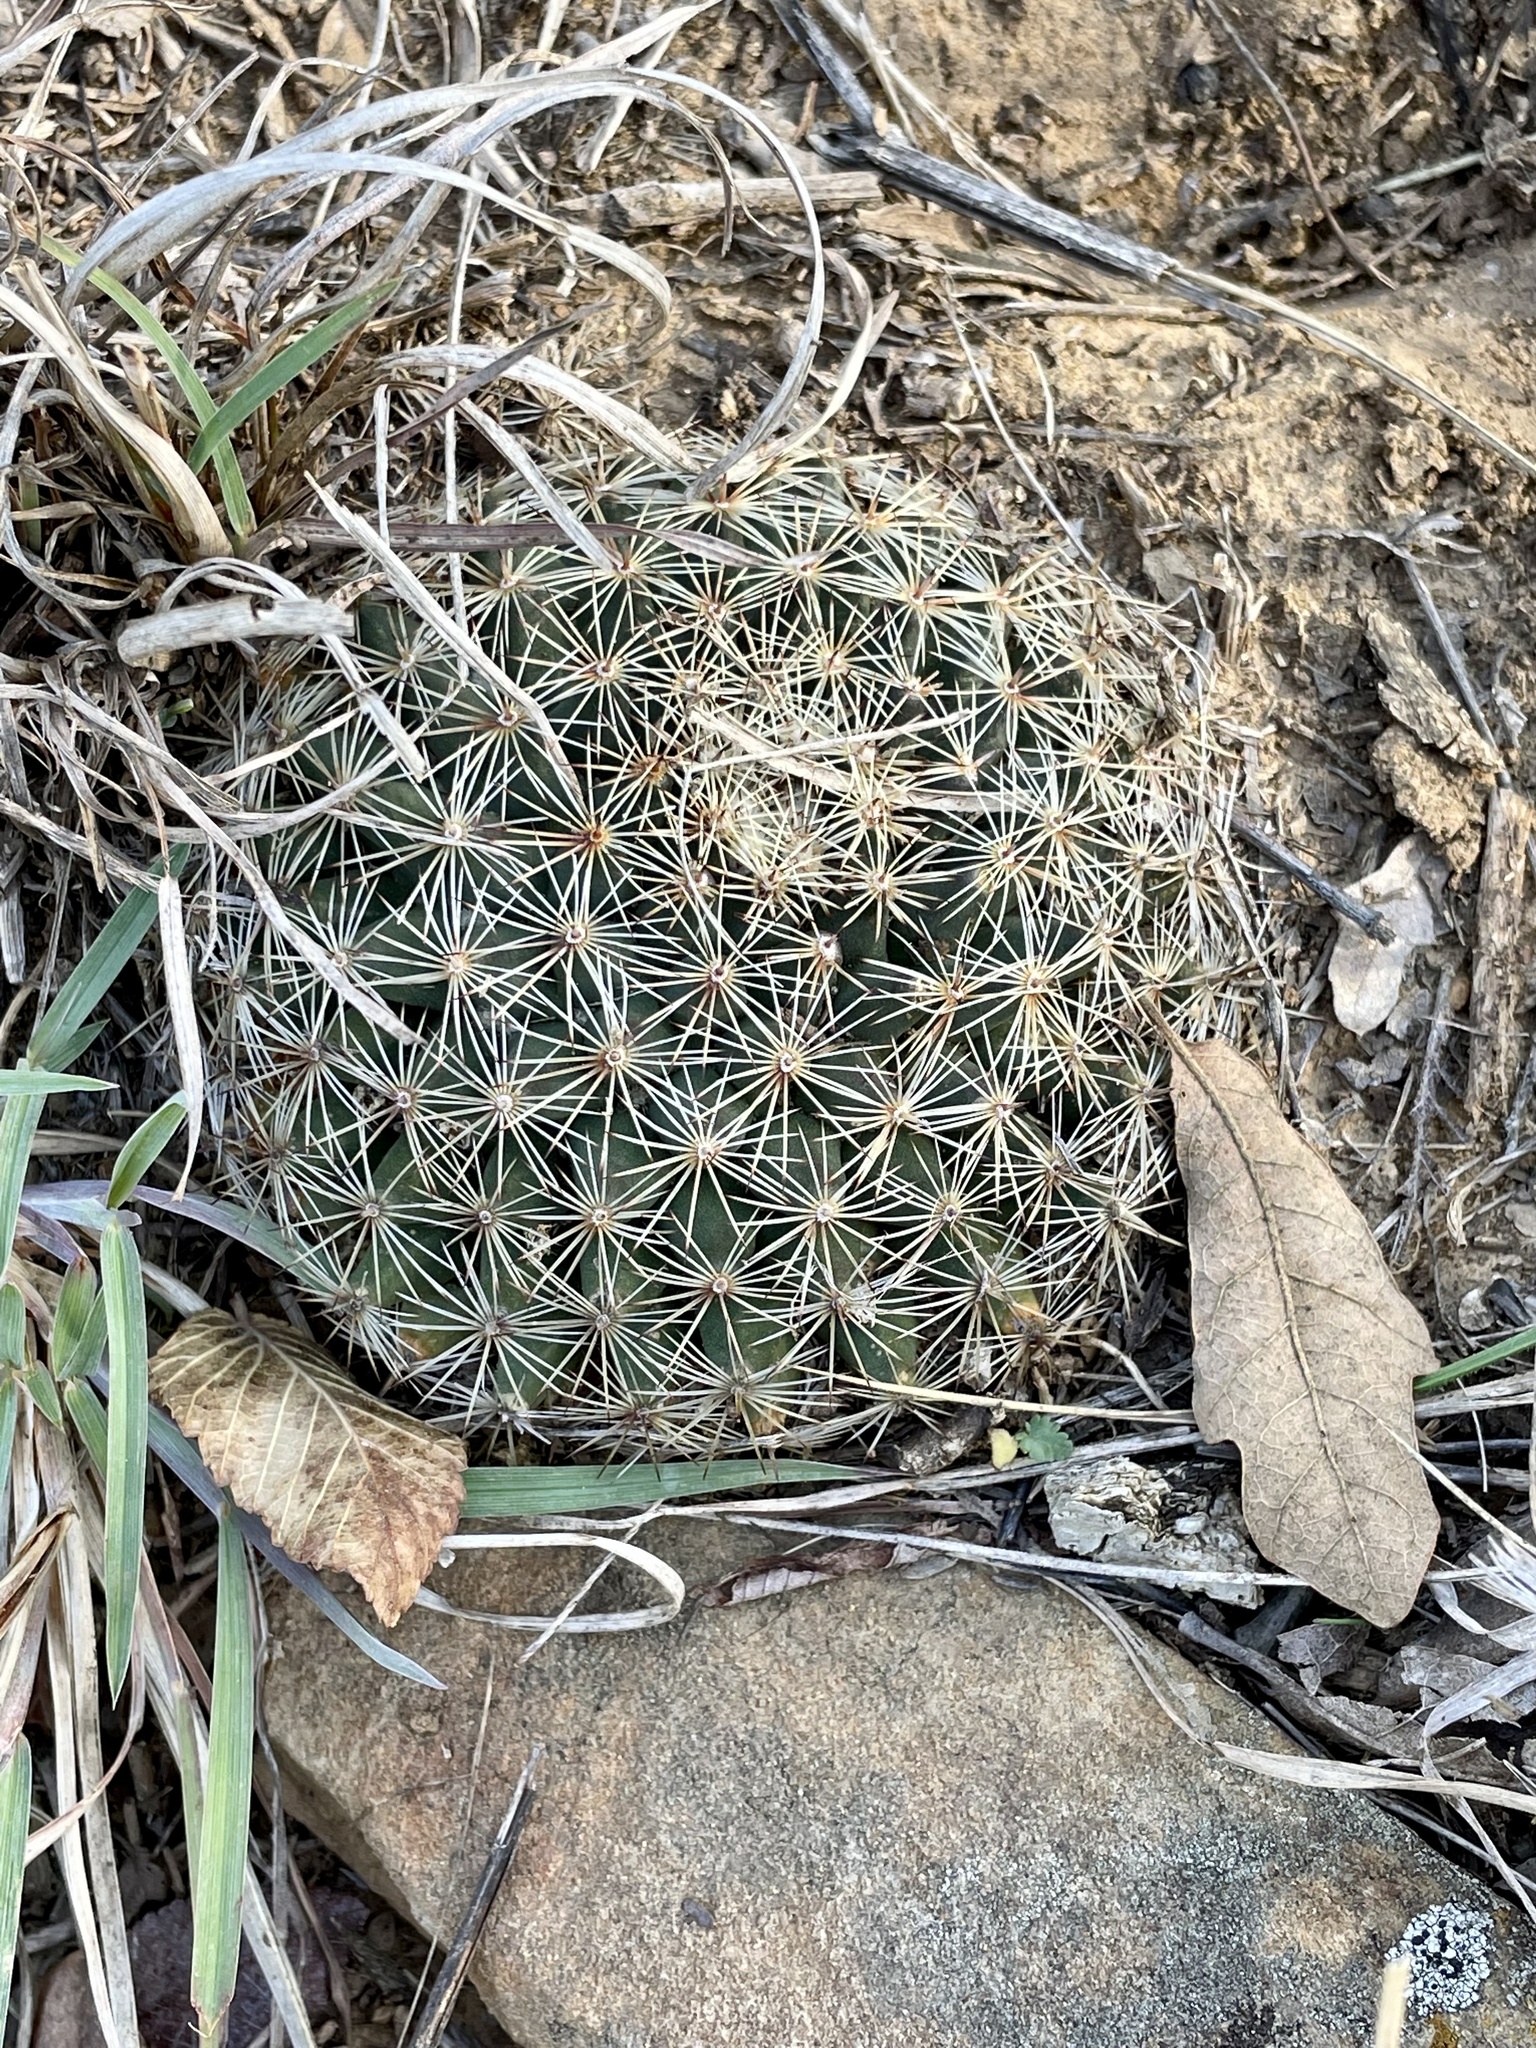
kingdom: Plantae
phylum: Tracheophyta
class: Magnoliopsida
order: Caryophyllales
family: Cactaceae
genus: Mammillaria
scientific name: Mammillaria heyderi
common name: Little nipple cactus
